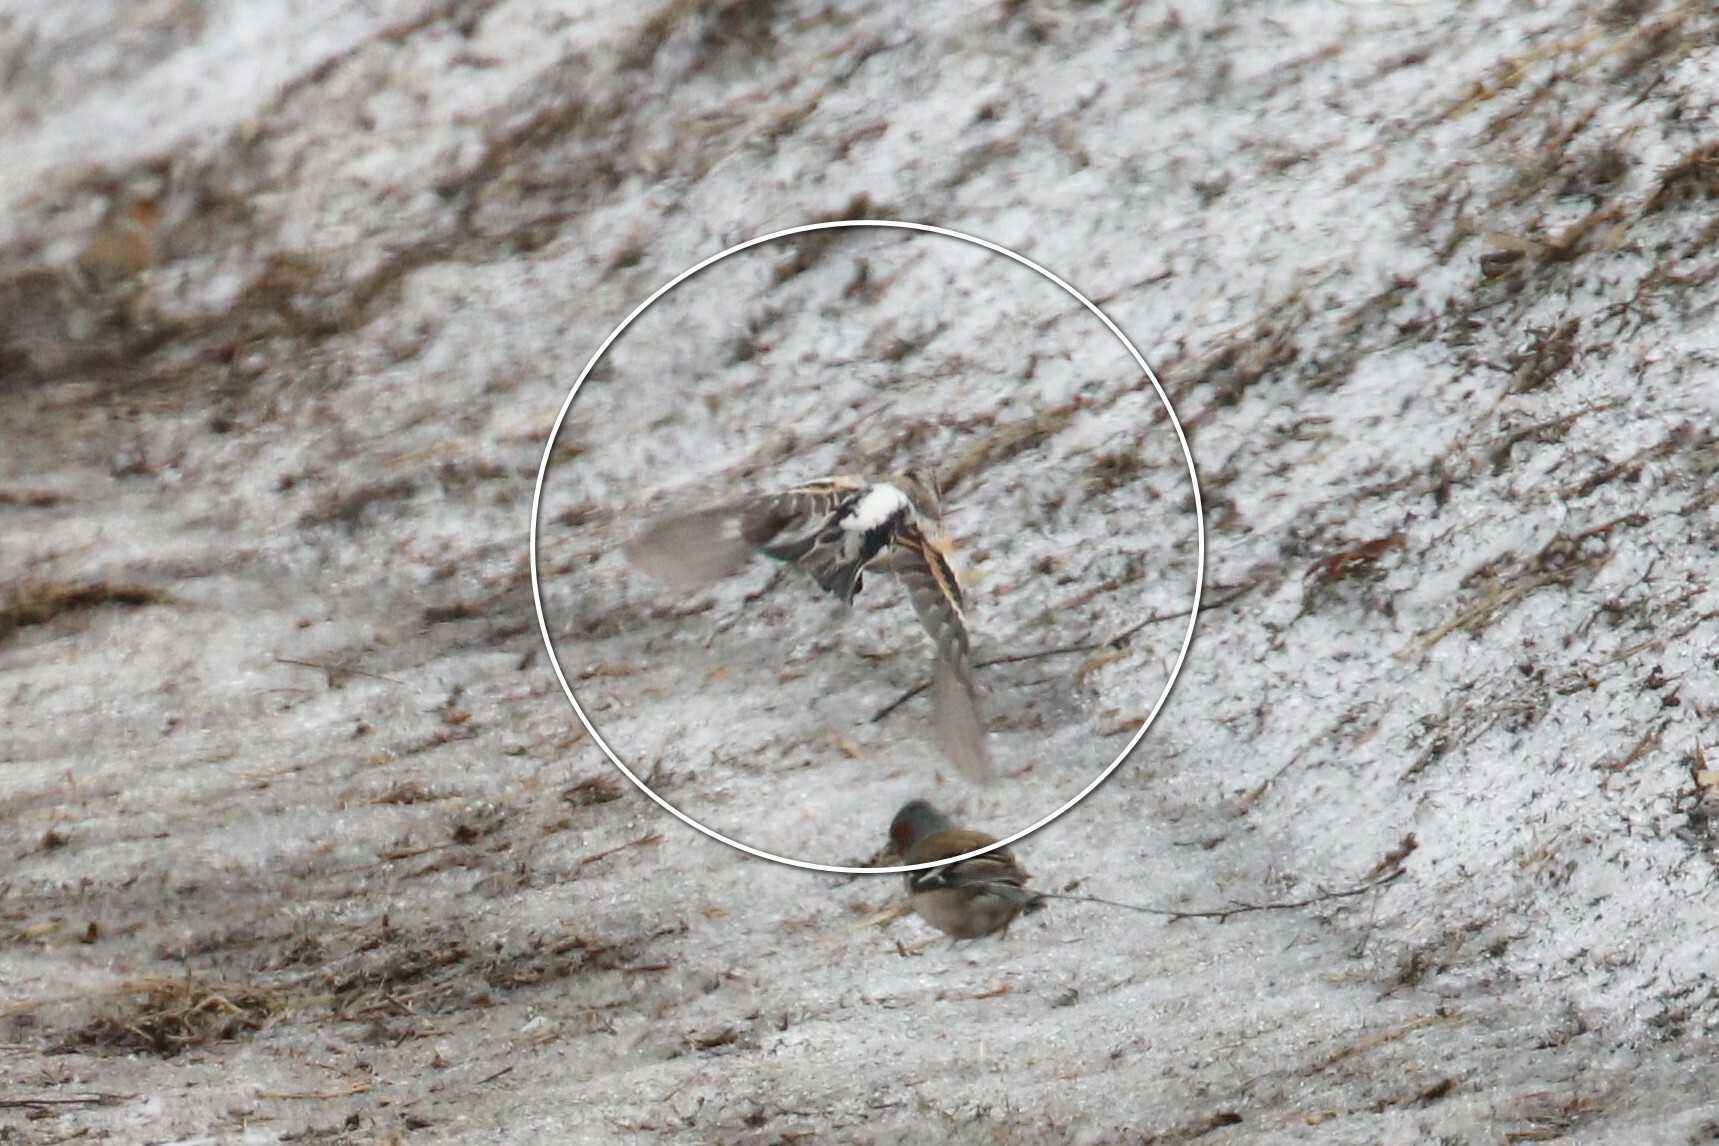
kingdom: Animalia
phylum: Chordata
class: Aves
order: Passeriformes
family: Fringillidae
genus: Fringilla
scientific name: Fringilla montifringilla
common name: Brambling
